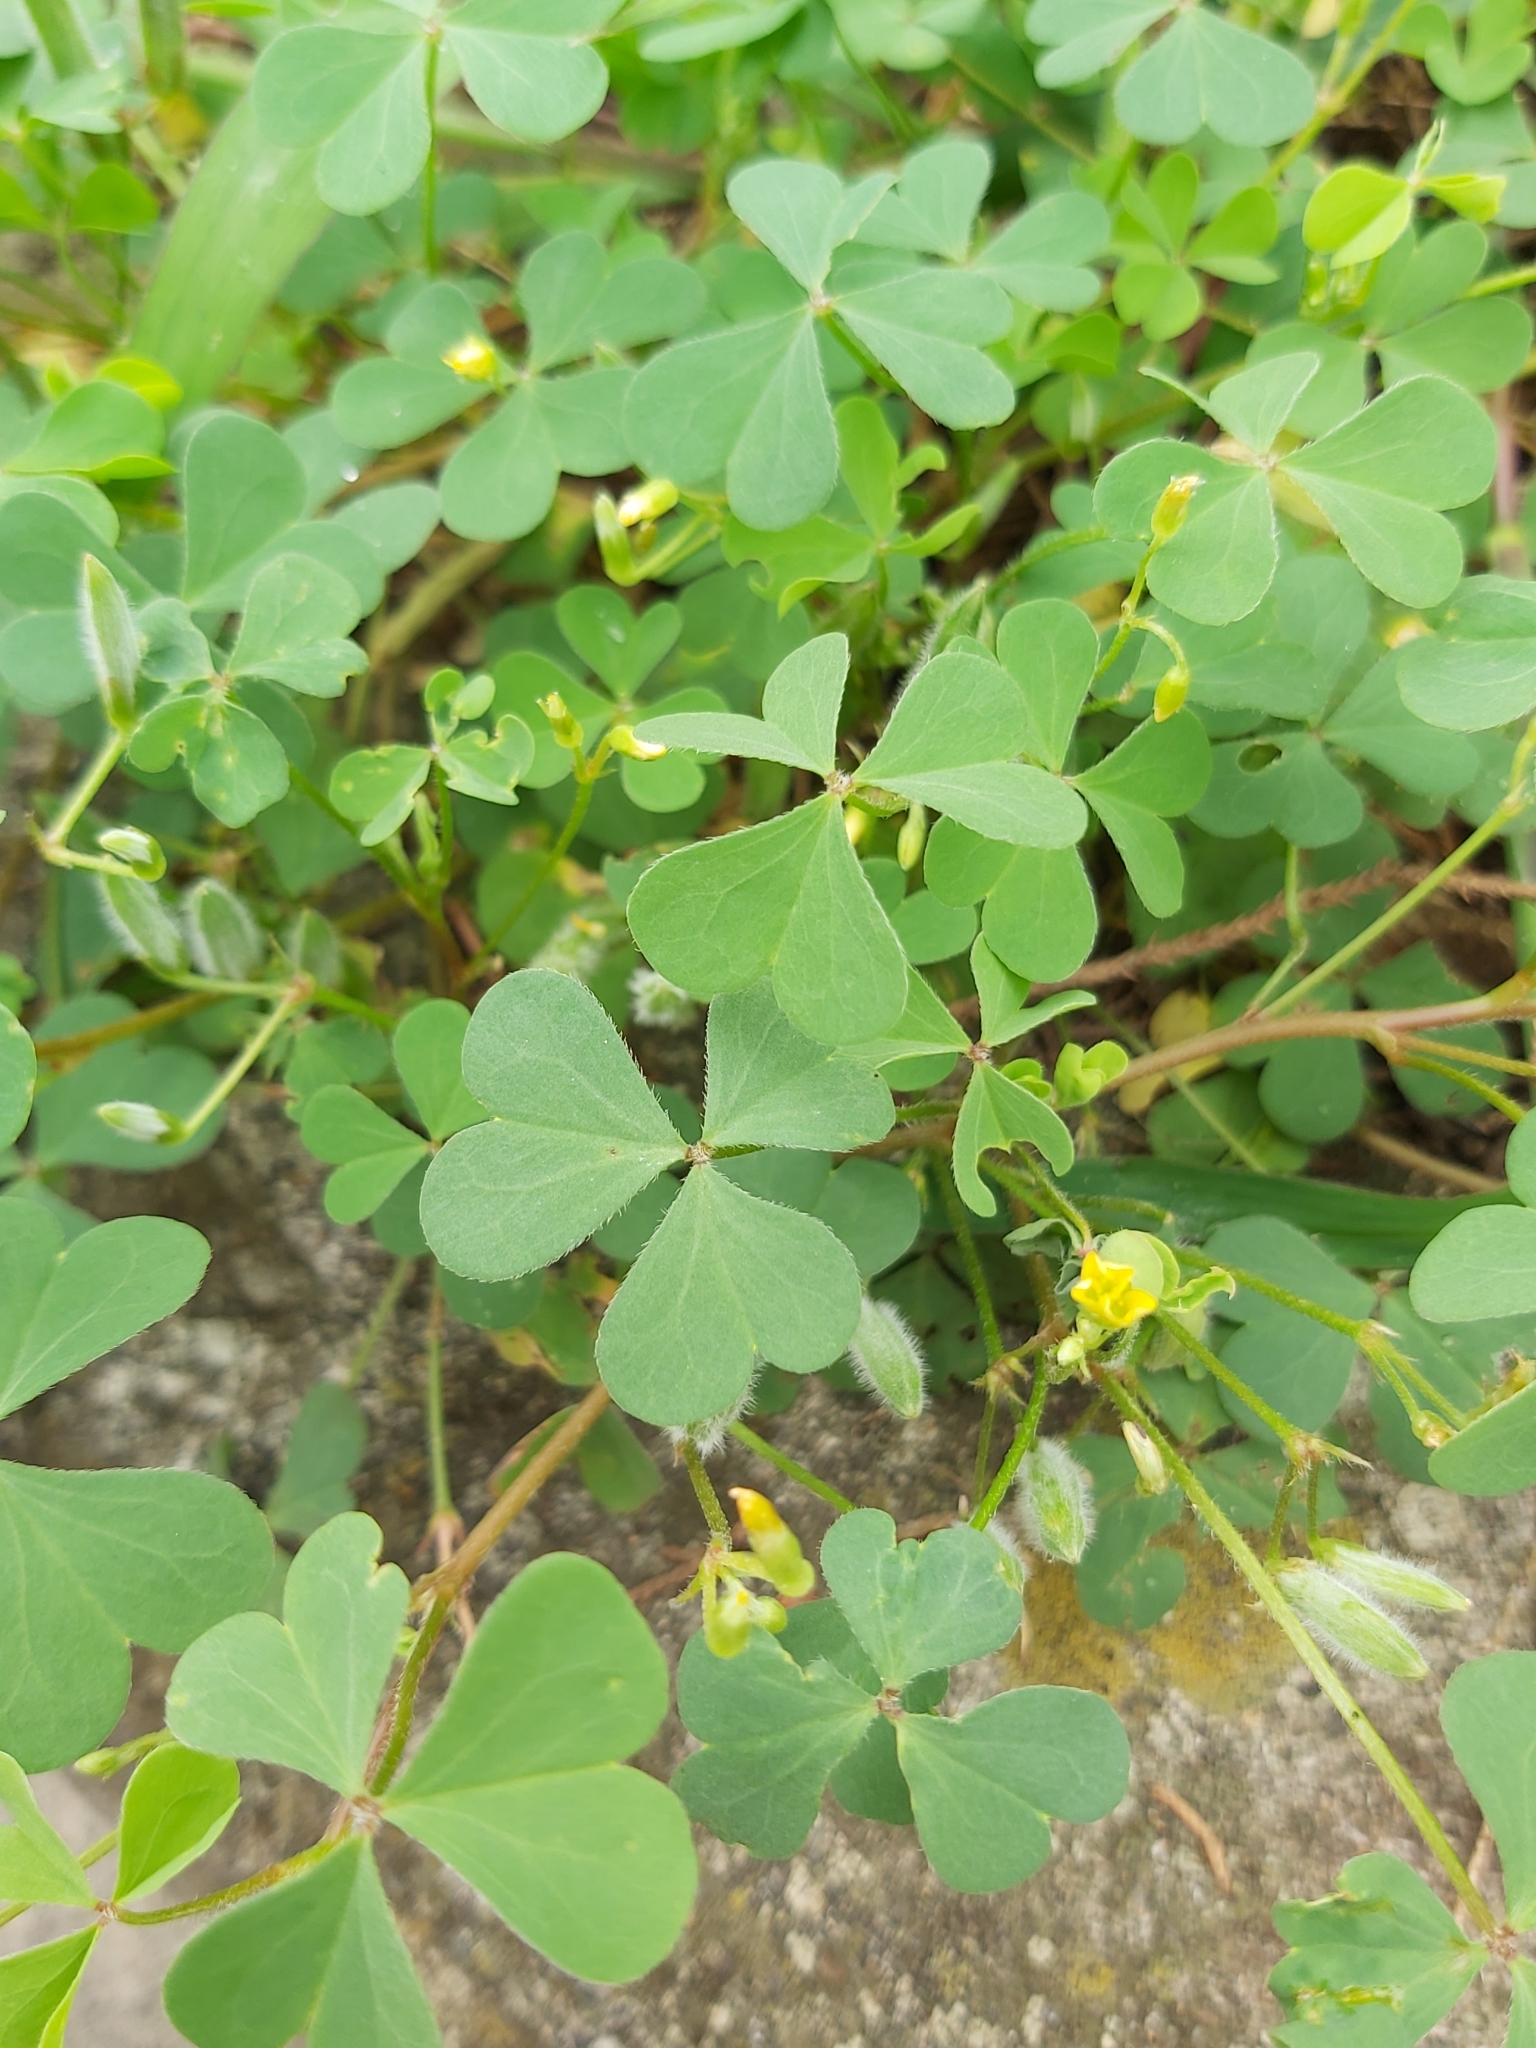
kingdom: Plantae
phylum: Tracheophyta
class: Magnoliopsida
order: Oxalidales
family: Oxalidaceae
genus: Oxalis
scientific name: Oxalis corniculata
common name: Procumbent yellow-sorrel
